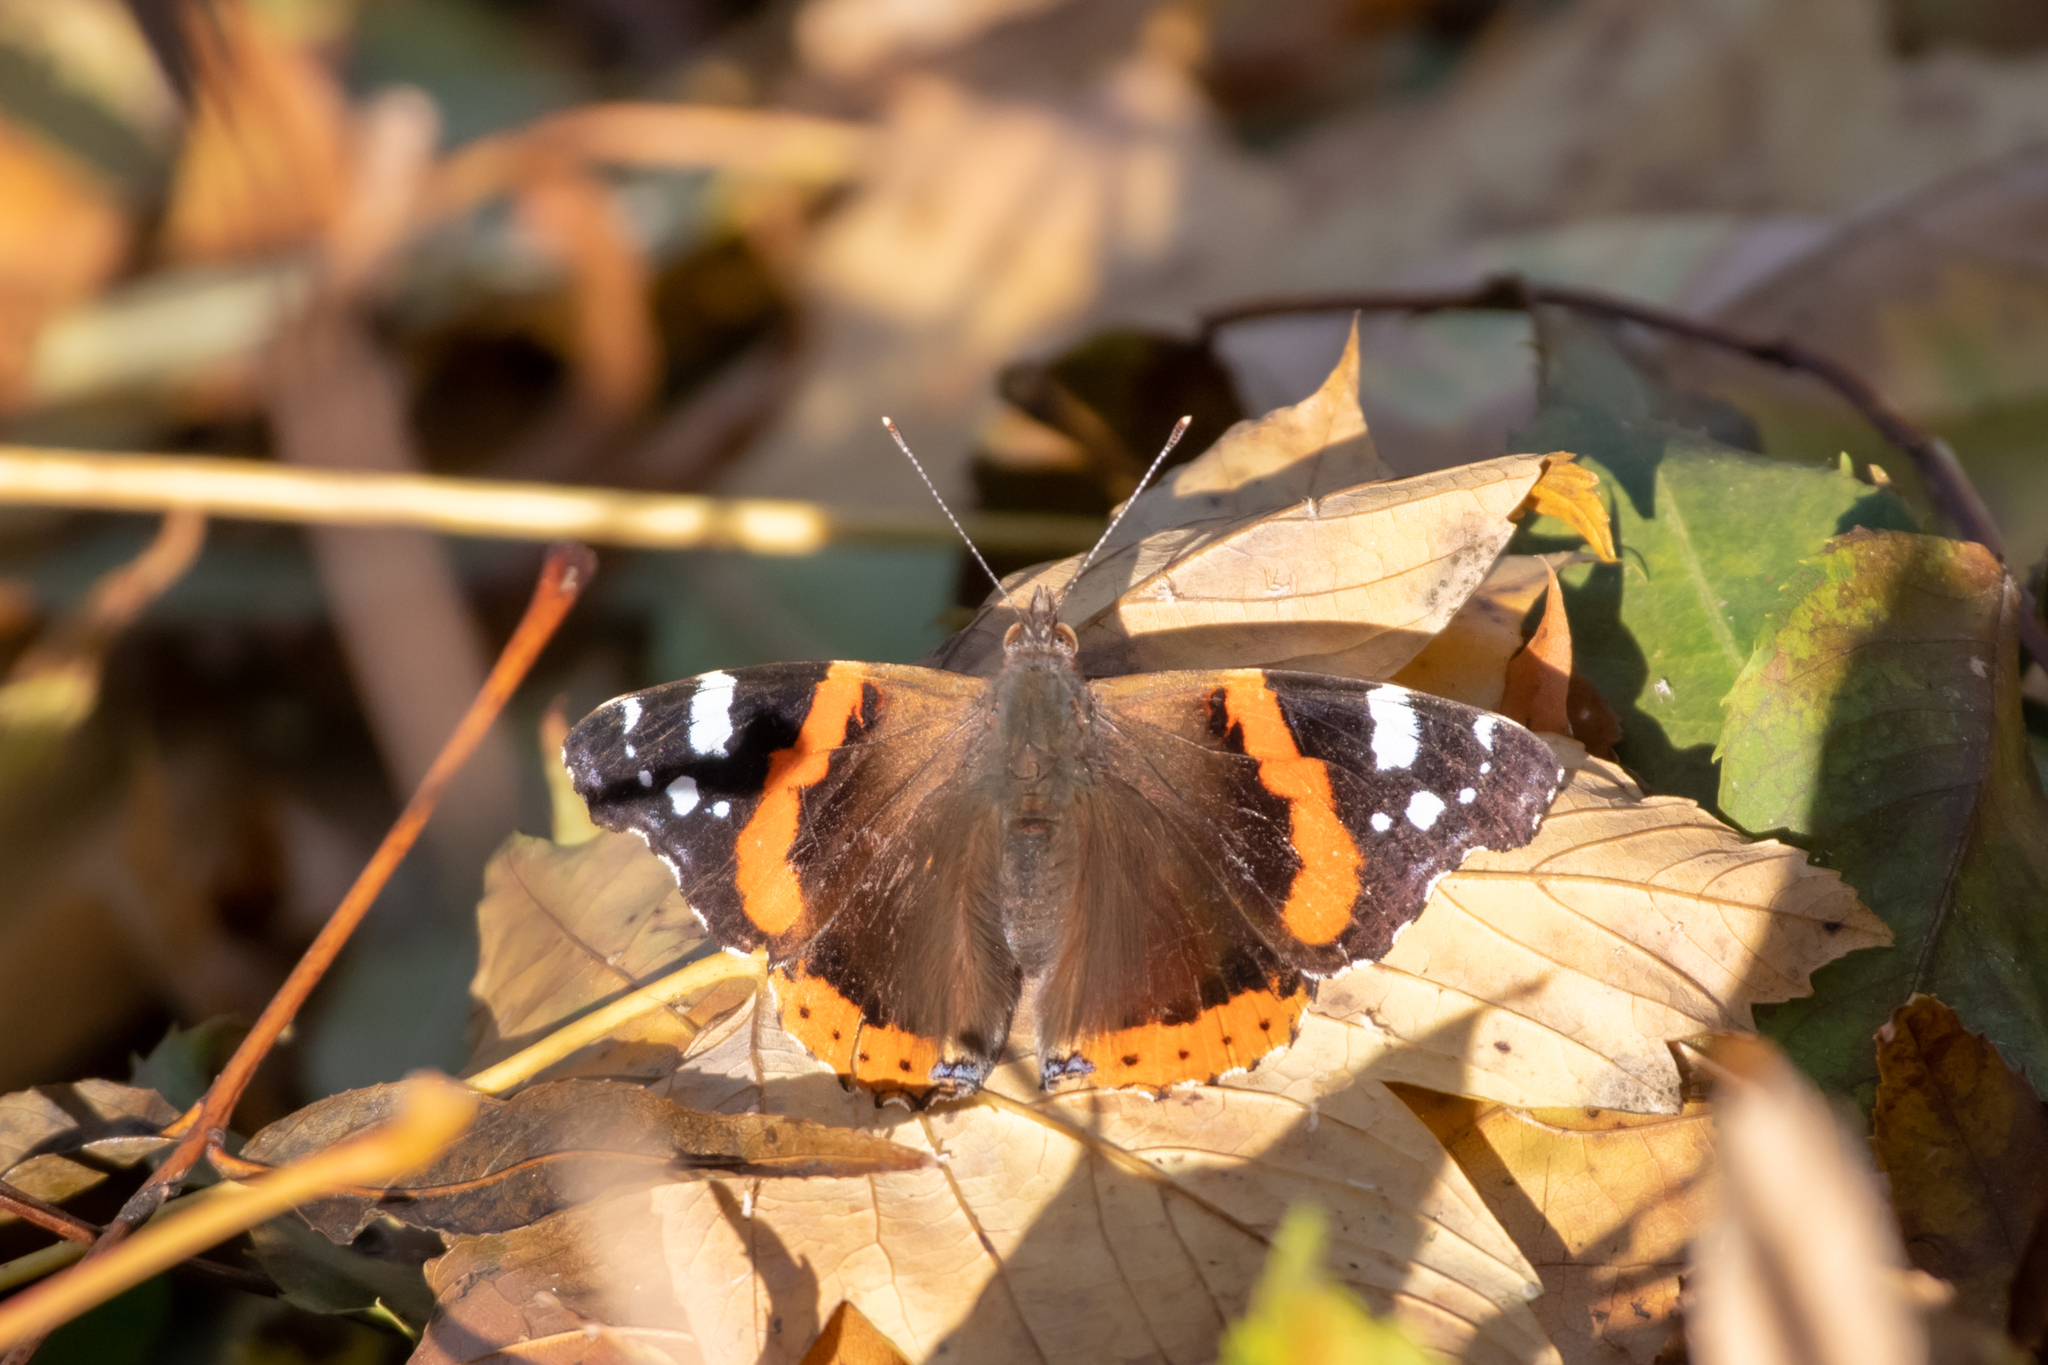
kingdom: Animalia
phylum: Arthropoda
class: Insecta
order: Lepidoptera
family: Nymphalidae
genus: Vanessa
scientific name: Vanessa atalanta
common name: Red admiral
